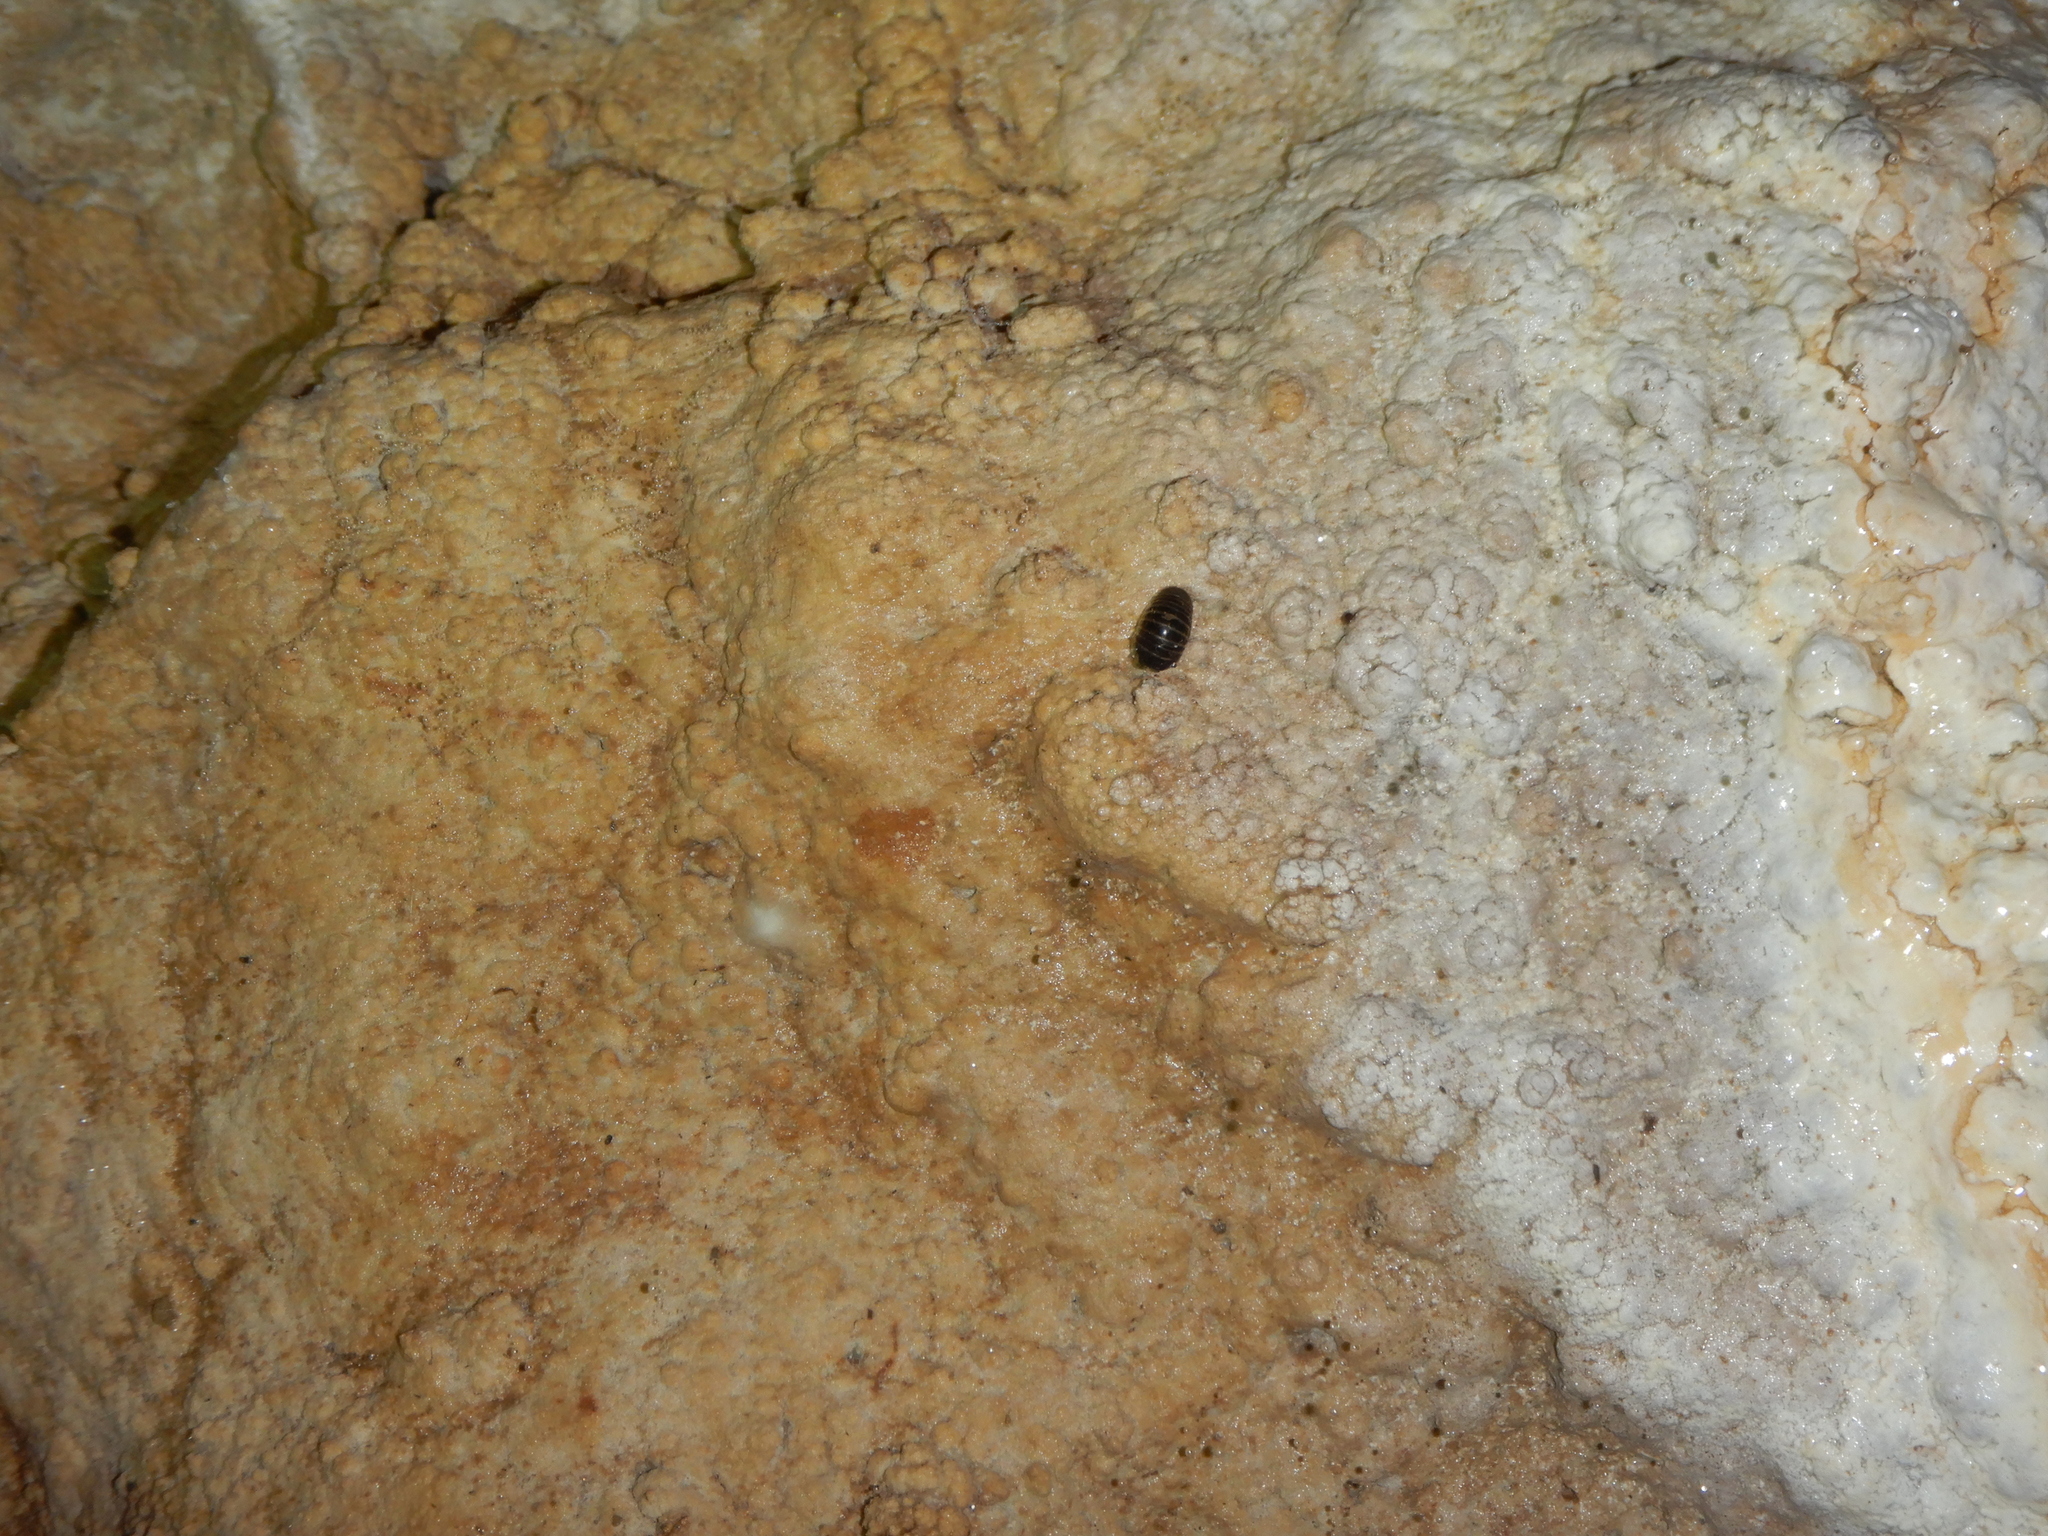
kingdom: Animalia
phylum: Arthropoda
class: Diplopoda
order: Glomerida
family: Glomeridae
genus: Glomeris
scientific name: Glomeris marginata
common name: Bordered pill millipede
